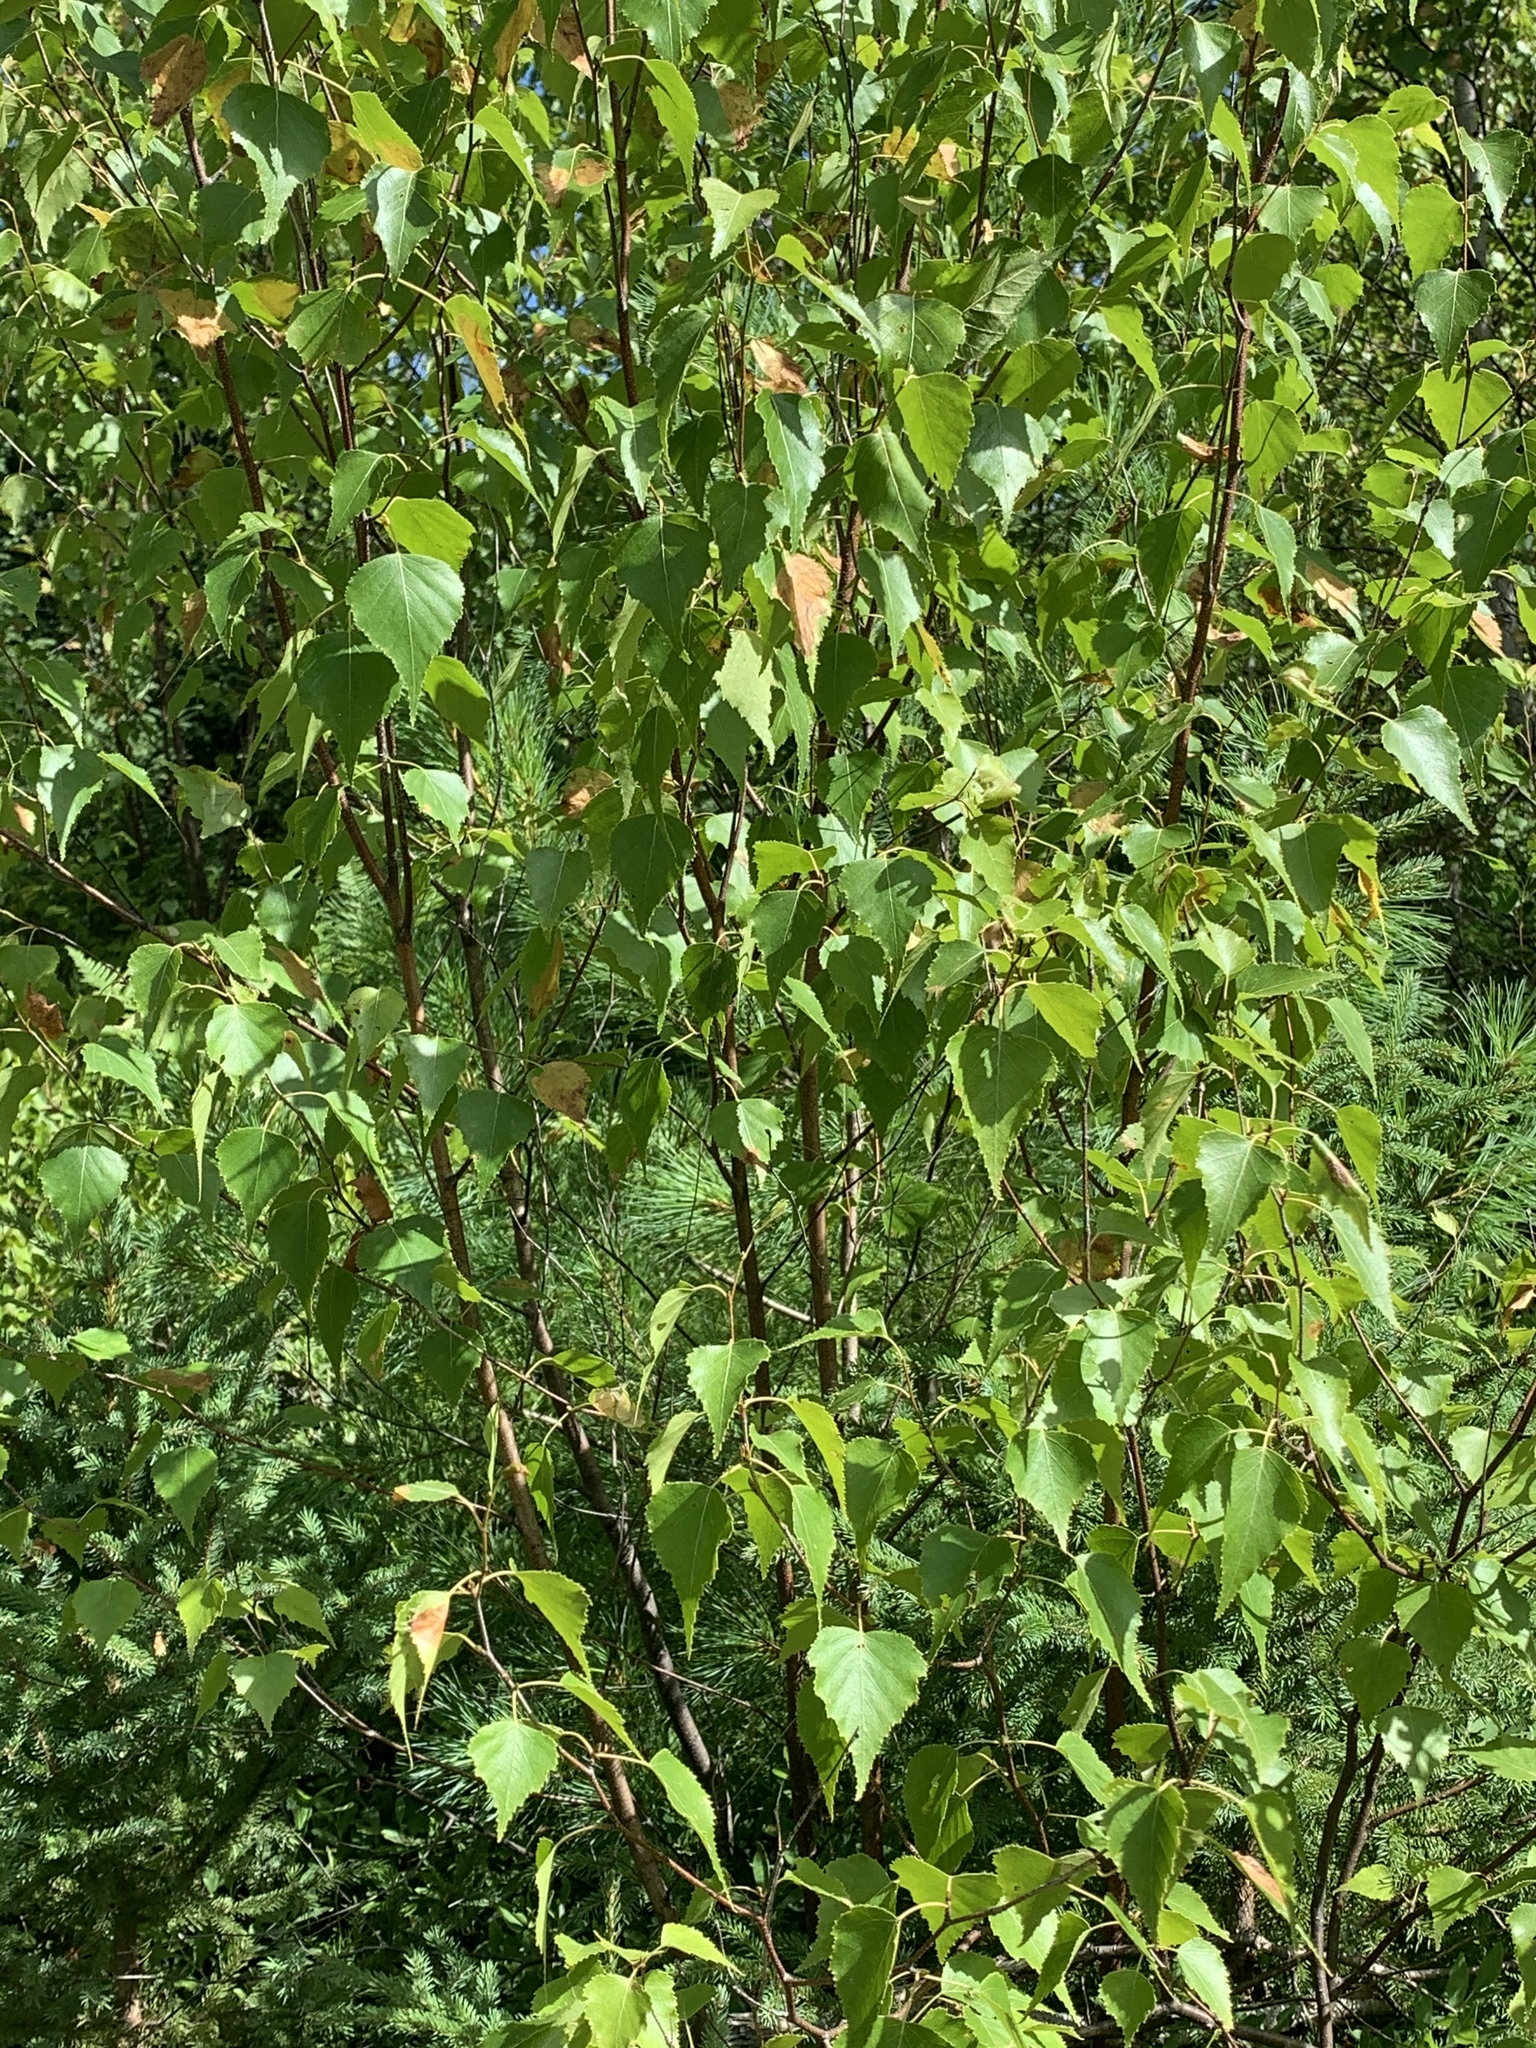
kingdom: Plantae
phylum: Tracheophyta
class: Magnoliopsida
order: Fagales
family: Betulaceae
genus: Betula
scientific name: Betula populifolia
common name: Fire birch
